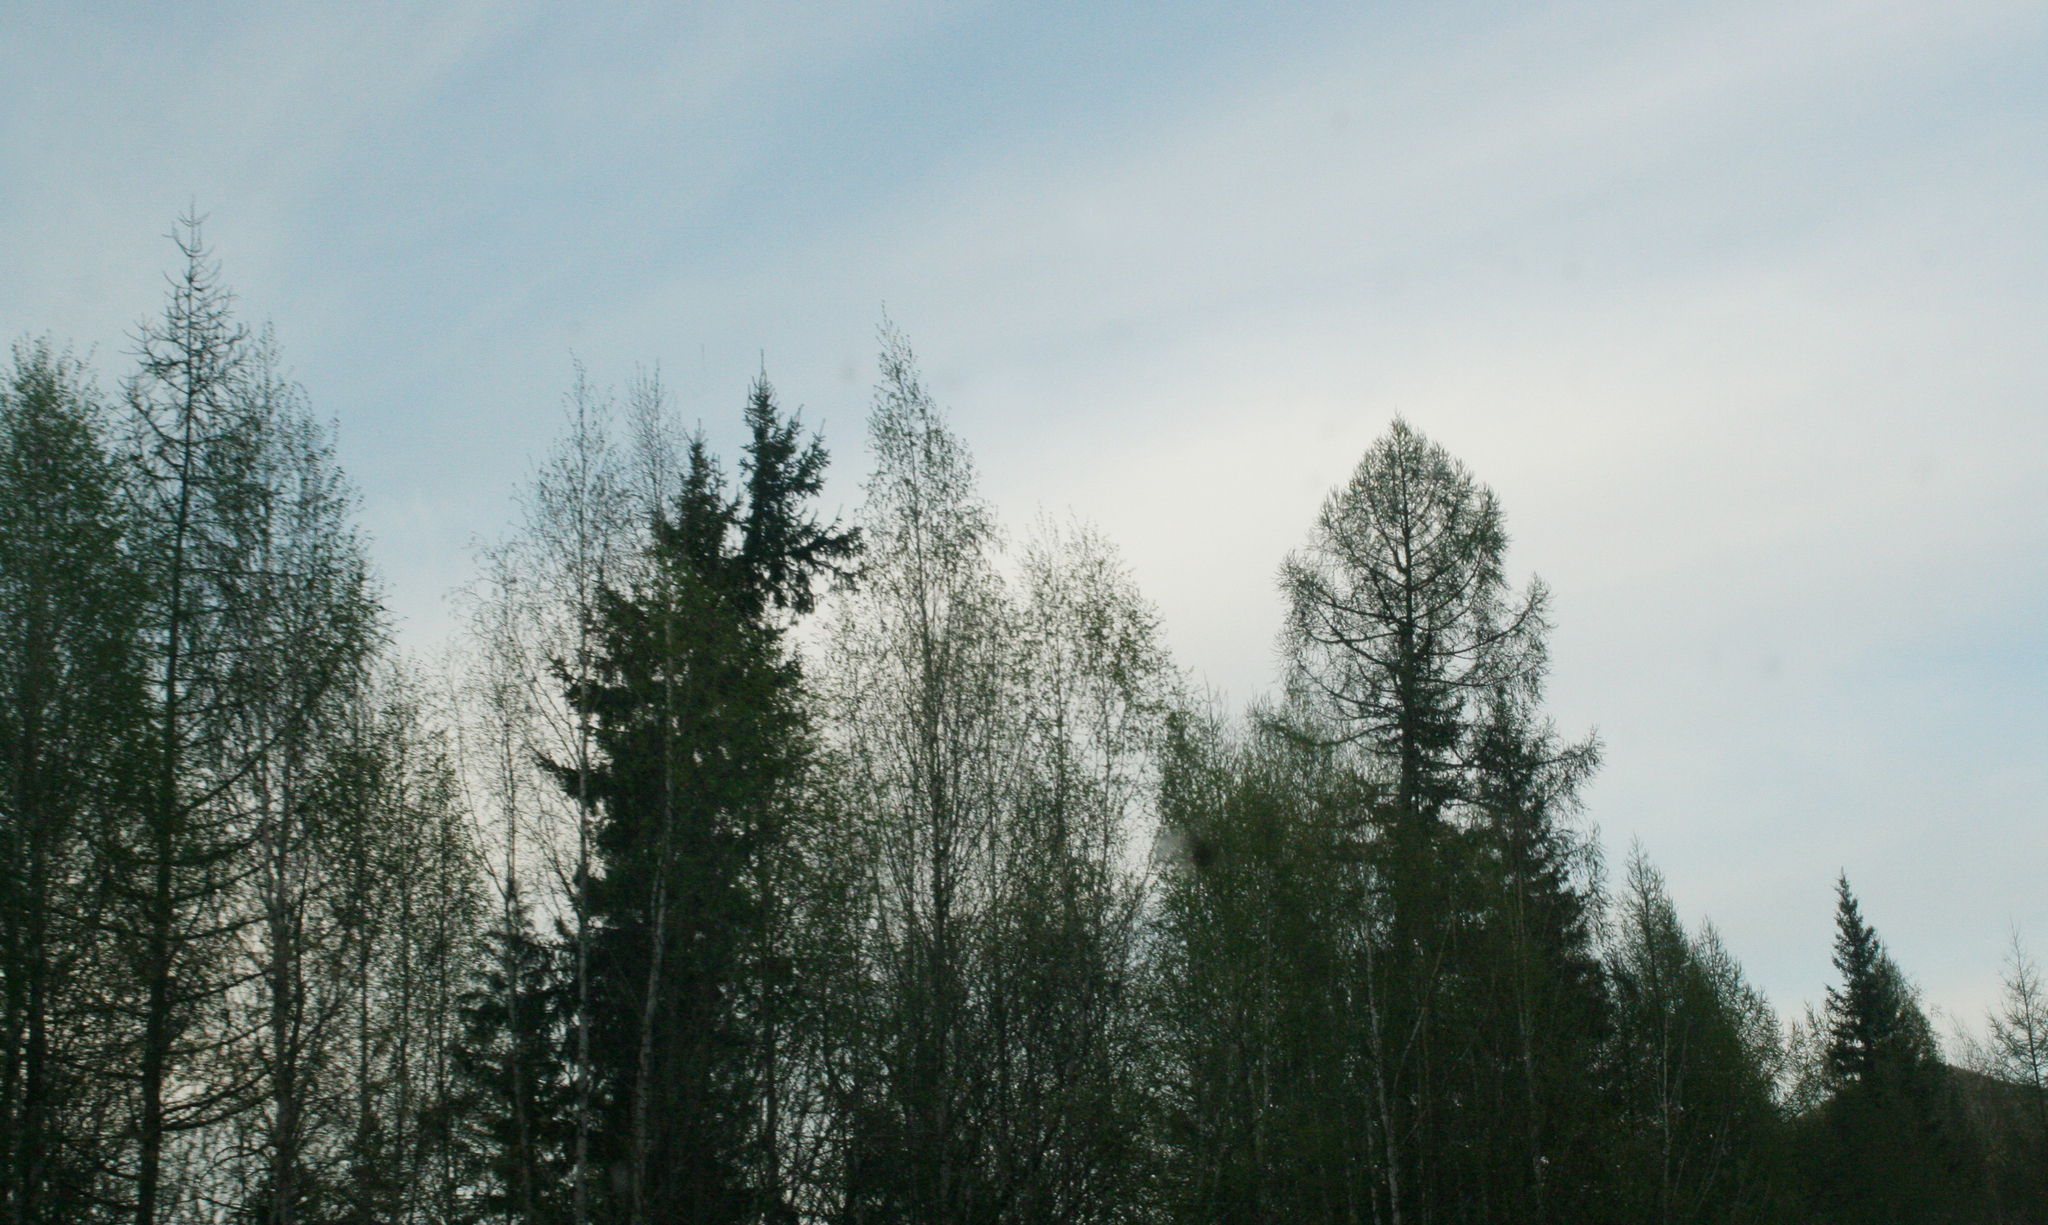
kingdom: Plantae
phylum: Tracheophyta
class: Pinopsida
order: Pinales
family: Pinaceae
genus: Larix
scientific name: Larix sibirica
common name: Siberian larch
